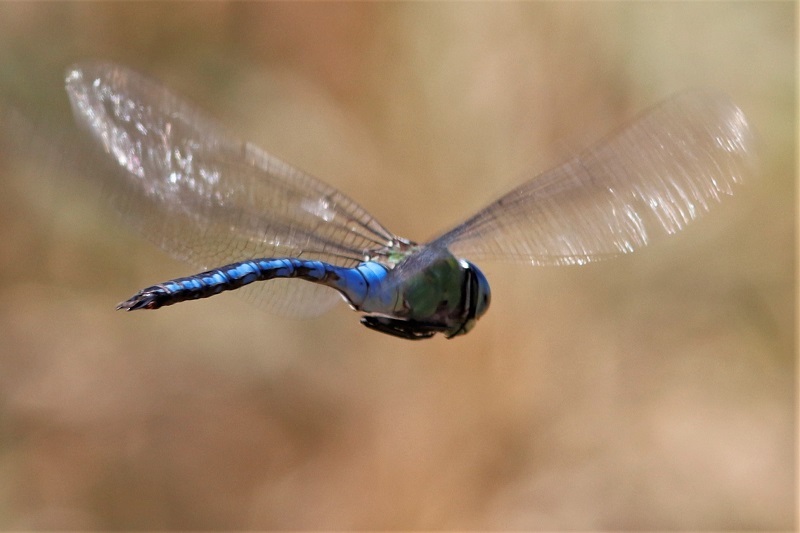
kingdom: Animalia
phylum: Arthropoda
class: Insecta
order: Odonata
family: Aeshnidae
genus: Anax
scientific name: Anax imperator
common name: Emperor dragonfly
